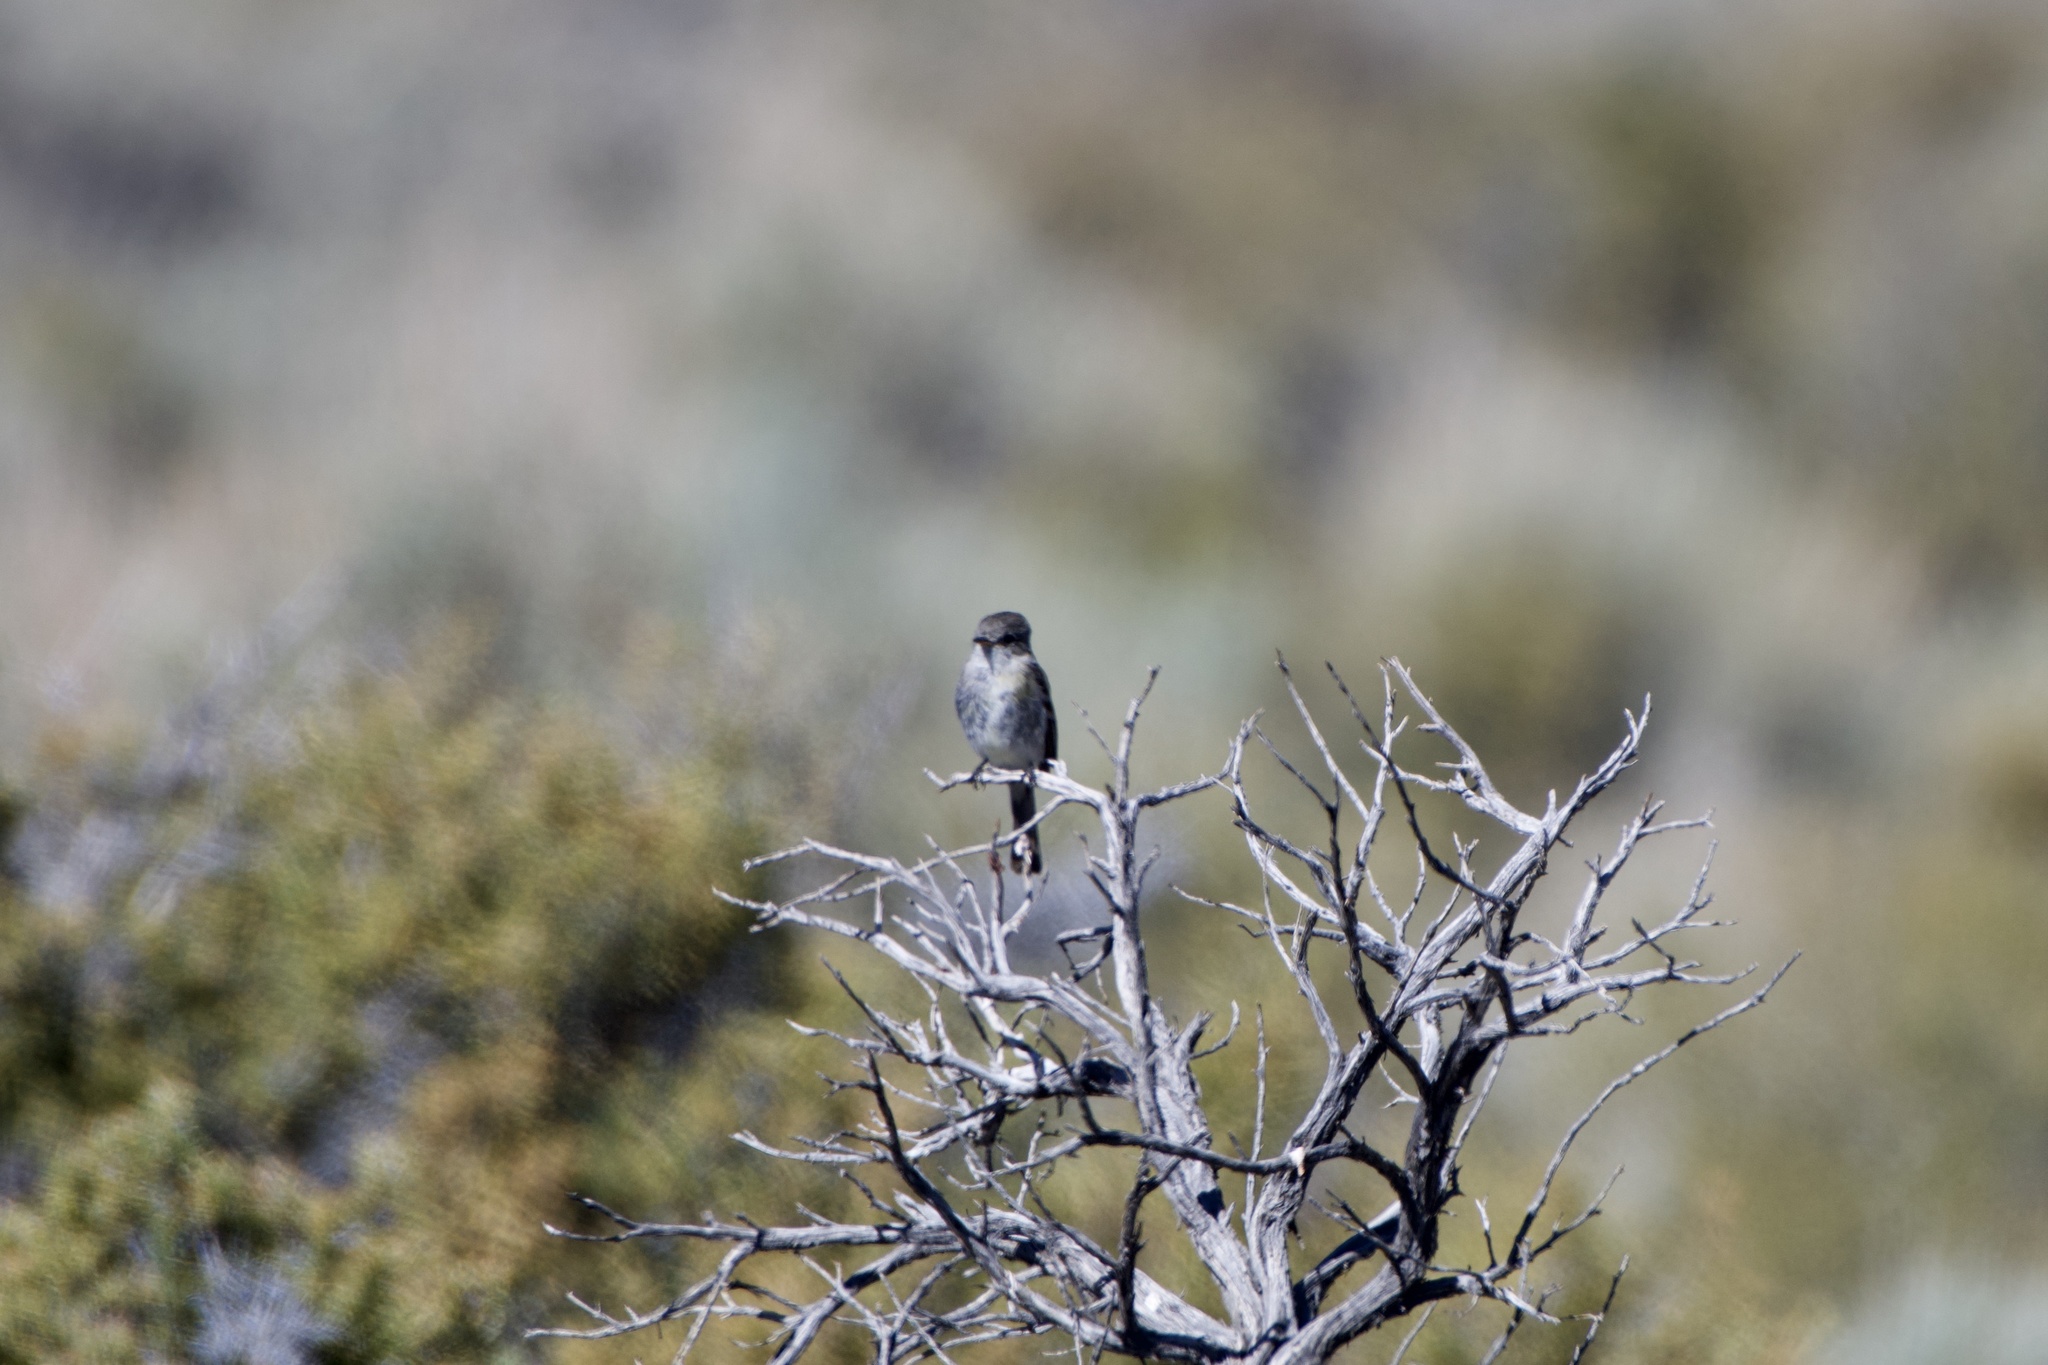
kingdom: Animalia
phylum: Chordata
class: Aves
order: Passeriformes
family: Tyrannidae
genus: Empidonax
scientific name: Empidonax wrightii
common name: Gray flycatcher
